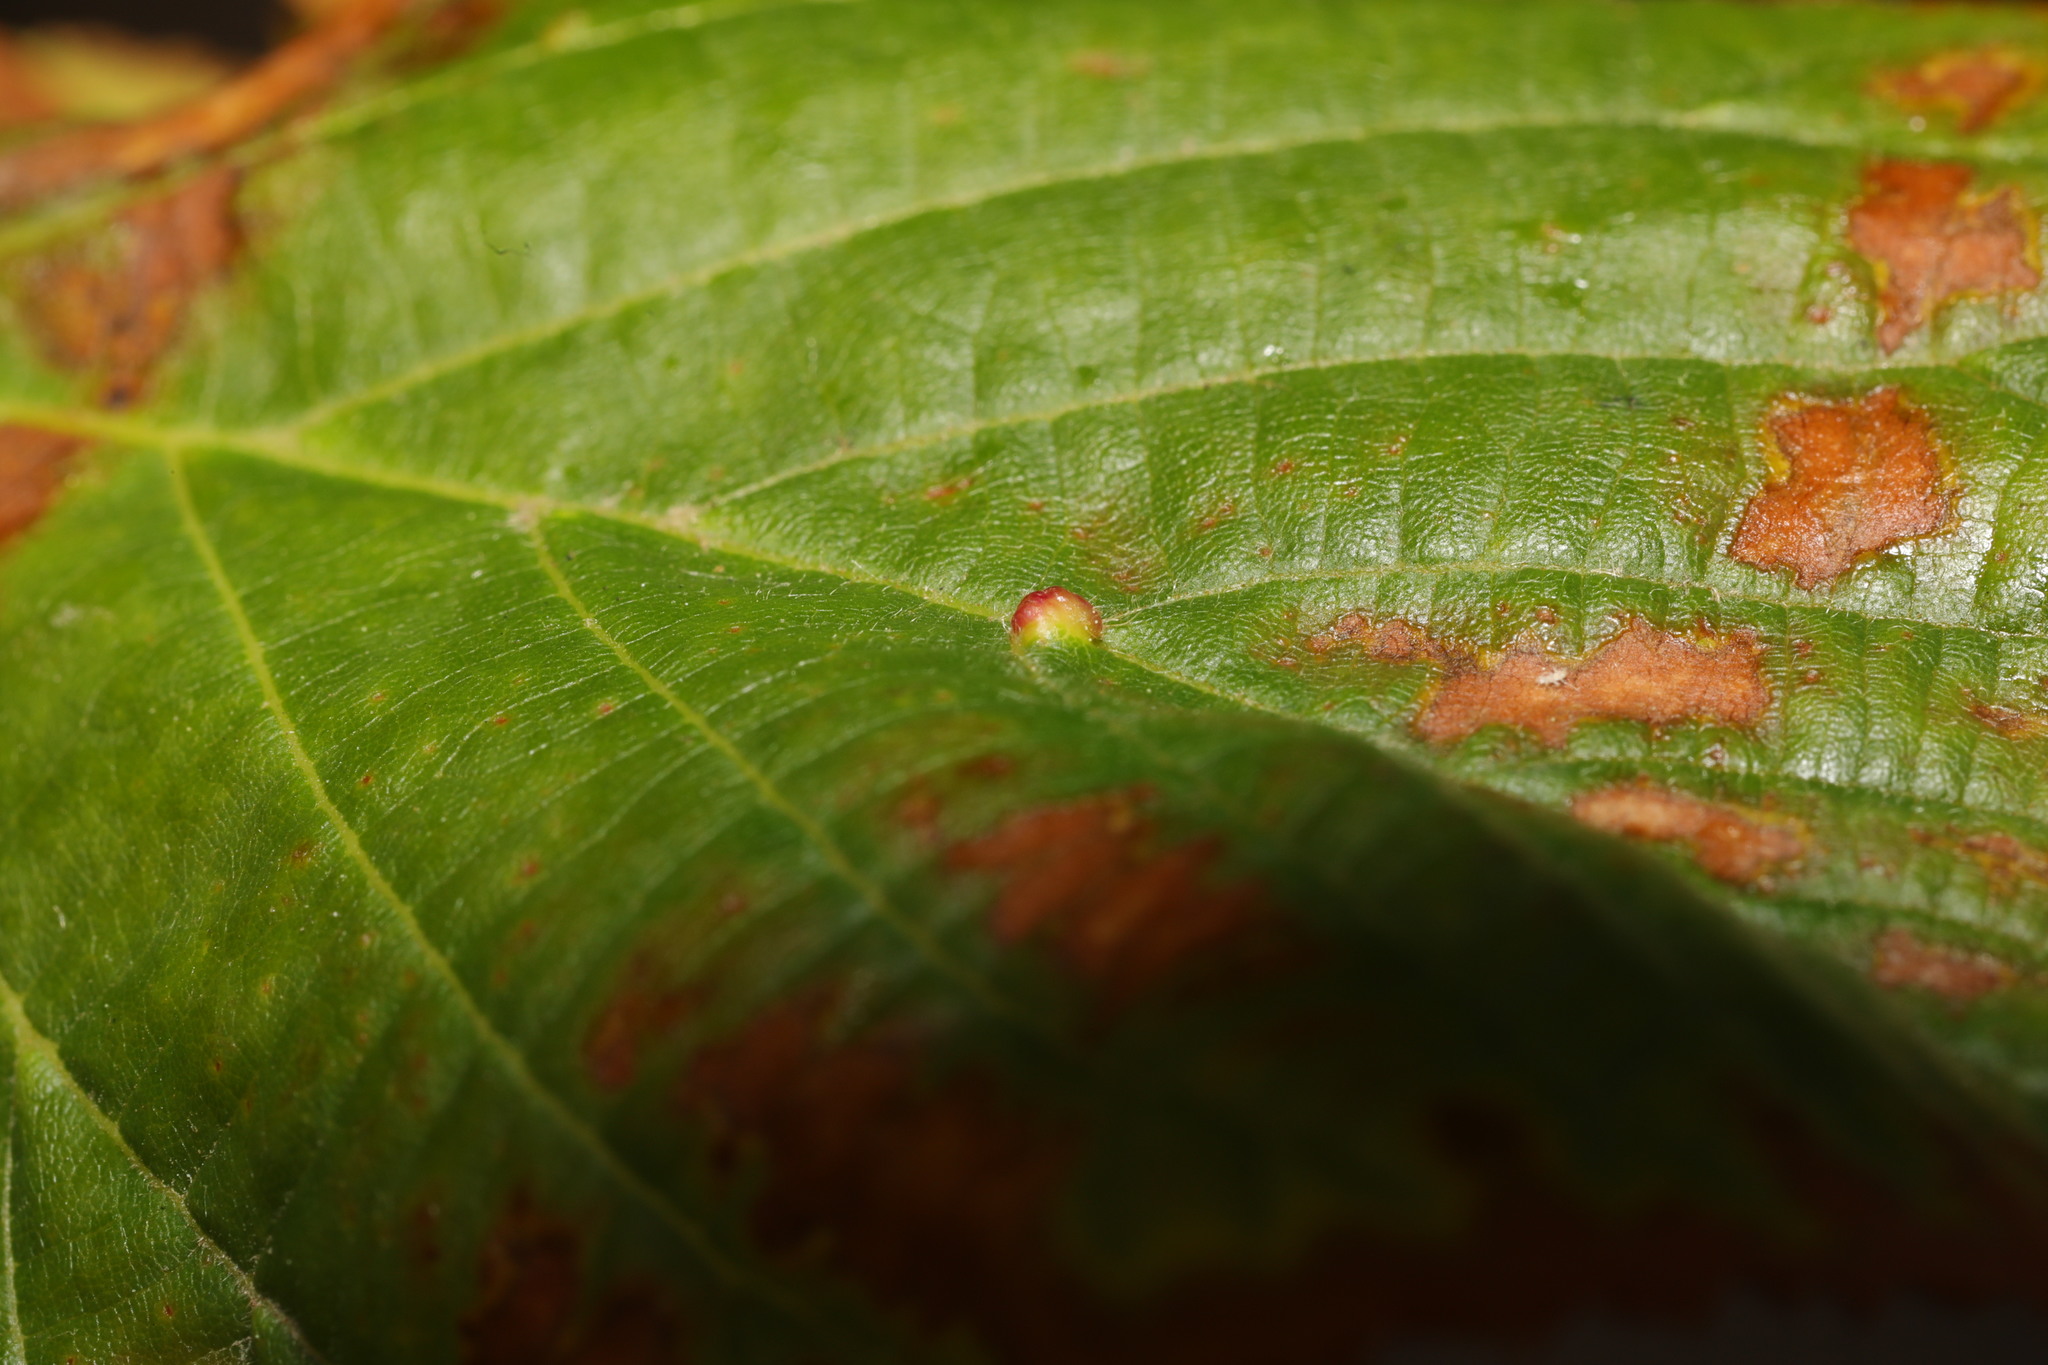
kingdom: Animalia
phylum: Arthropoda
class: Arachnida
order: Trombidiformes
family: Eriophyidae
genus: Eriophyes
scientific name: Eriophyes tiliae
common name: Red nail gall mite
